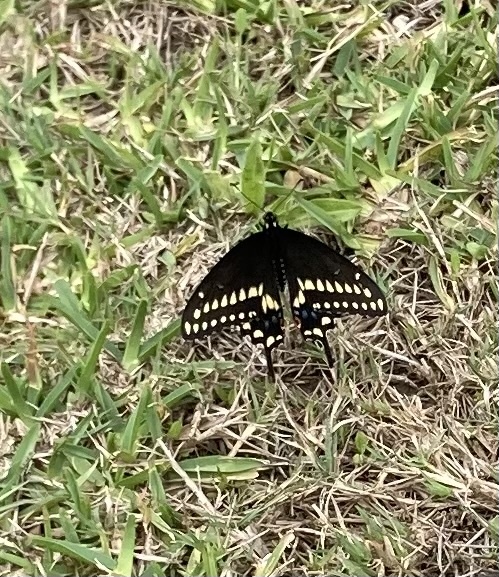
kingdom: Animalia
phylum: Arthropoda
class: Insecta
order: Lepidoptera
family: Papilionidae
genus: Papilio
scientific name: Papilio polyxenes
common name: Black swallowtail
